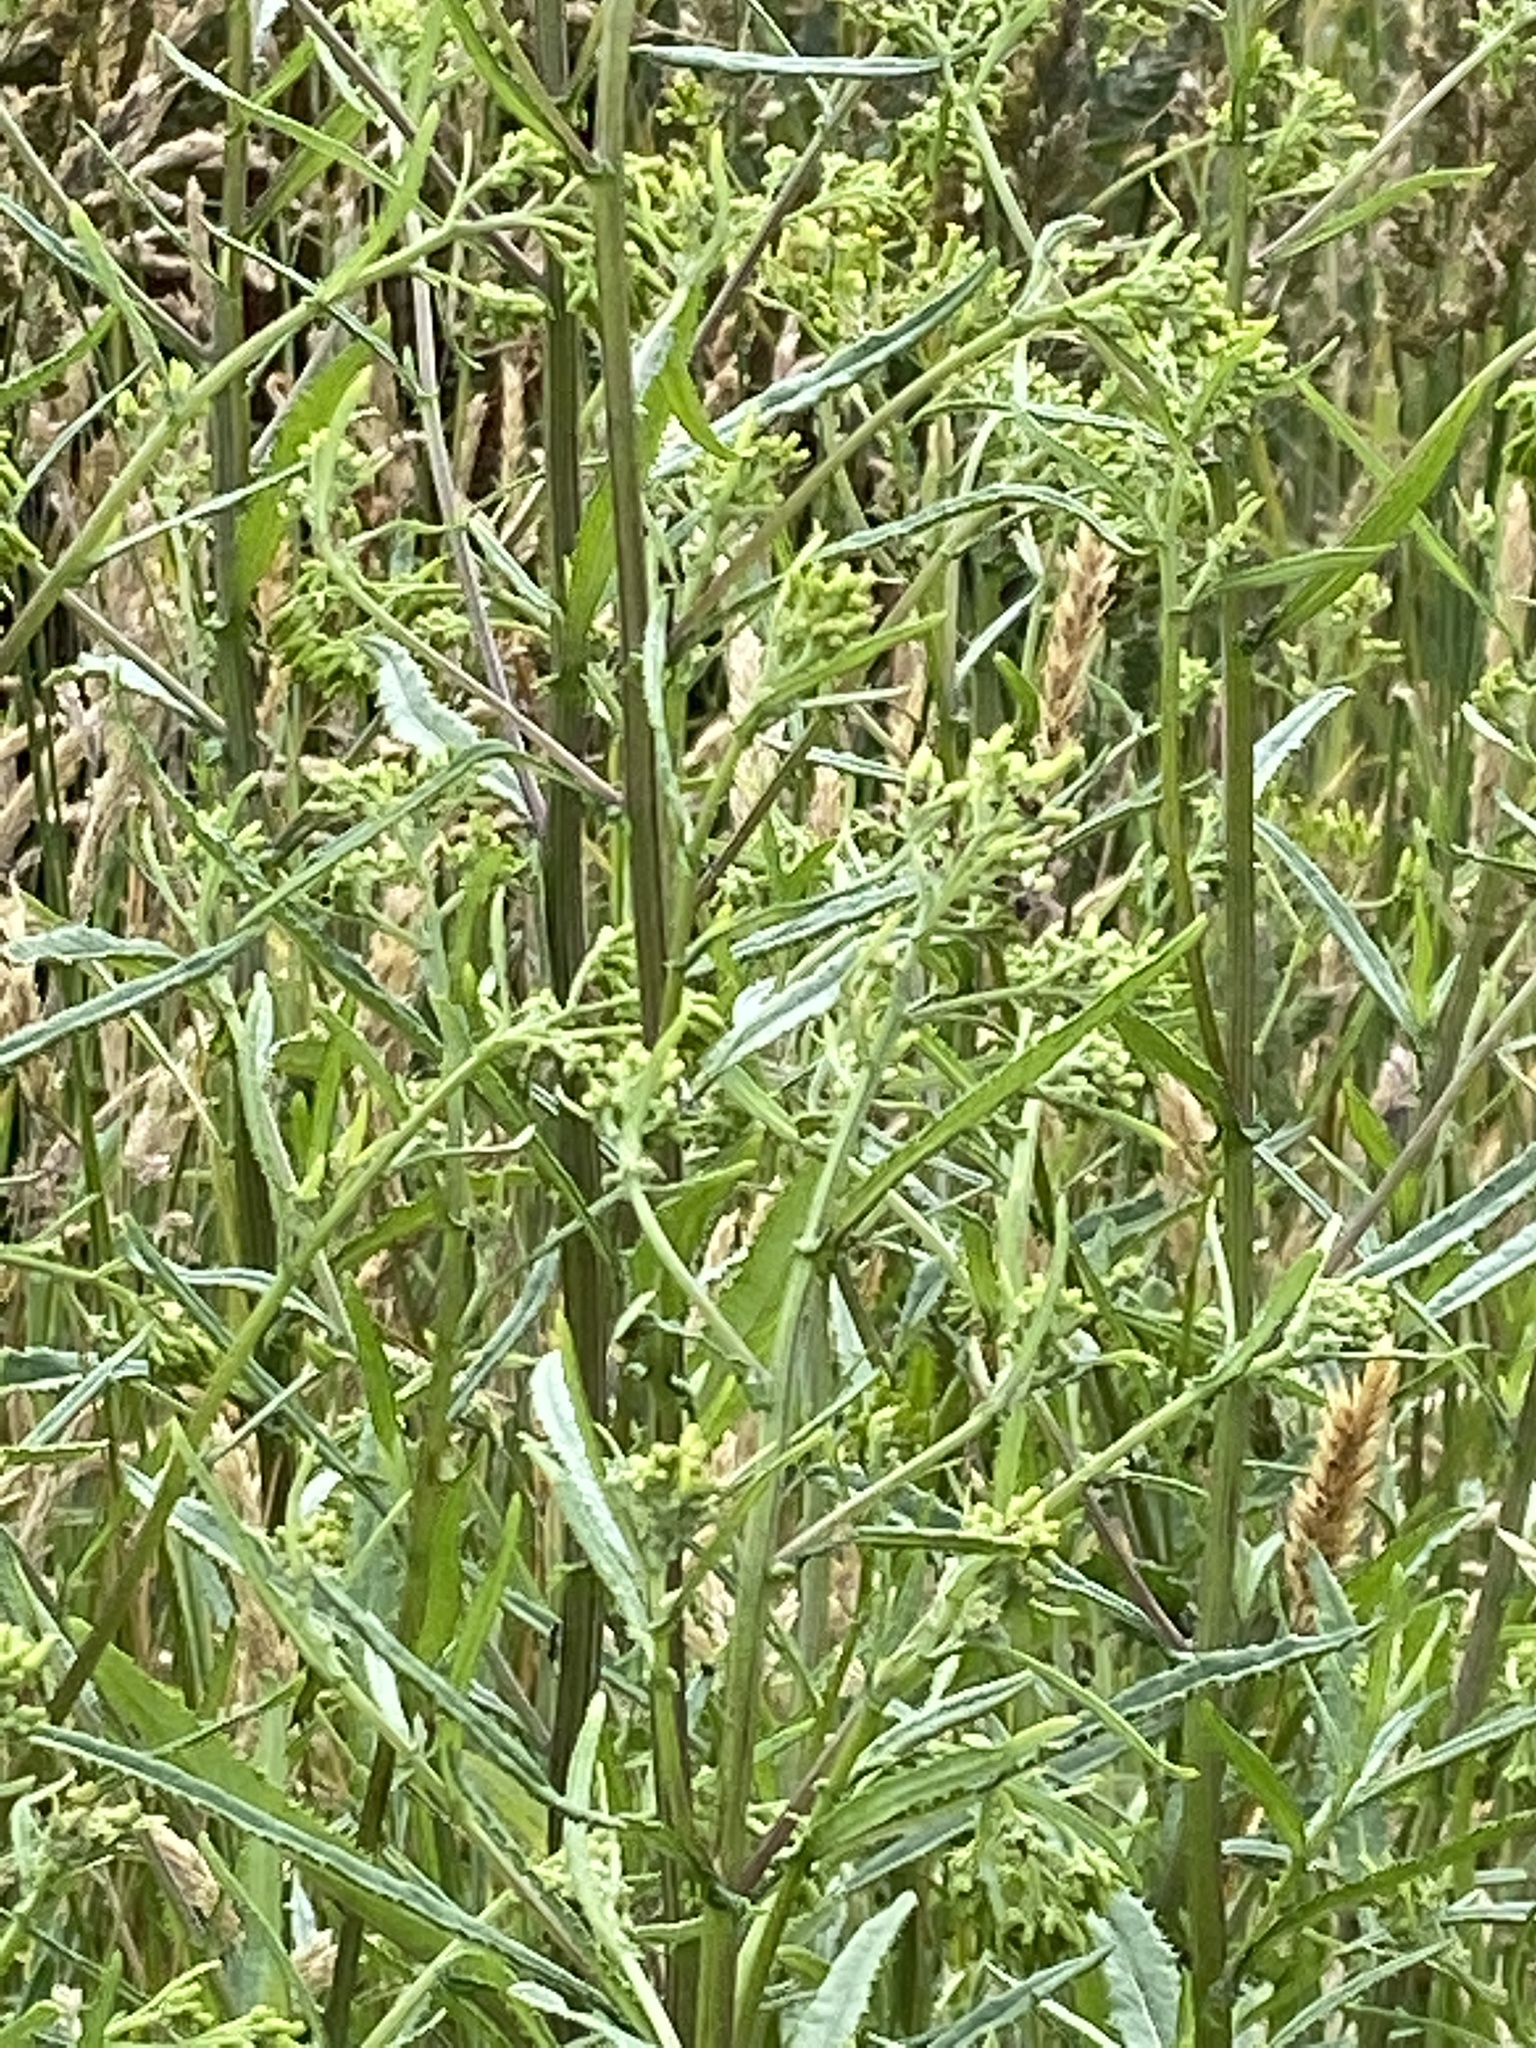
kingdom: Plantae
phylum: Tracheophyta
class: Magnoliopsida
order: Asterales
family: Asteraceae
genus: Senecio
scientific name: Senecio minimus
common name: Toothed fireweed
